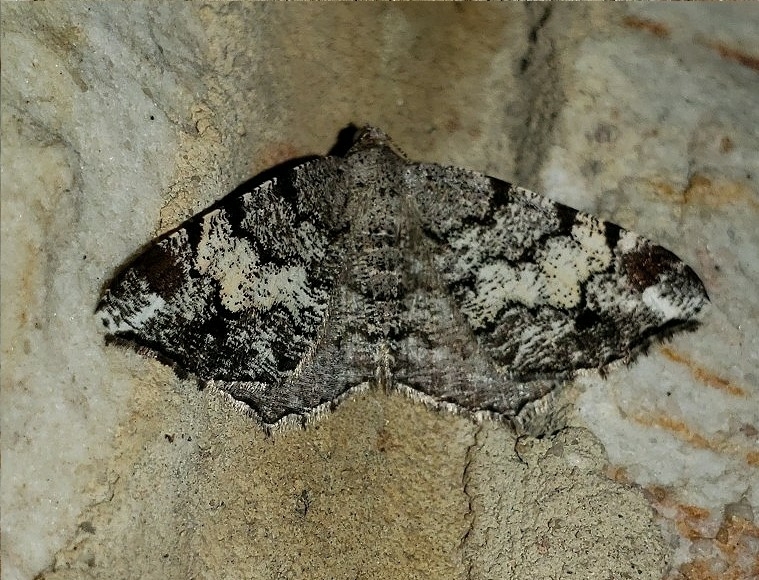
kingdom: Animalia
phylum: Arthropoda
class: Insecta
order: Lepidoptera
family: Geometridae
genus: Macaria
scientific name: Macaria granitata
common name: Granite moth
